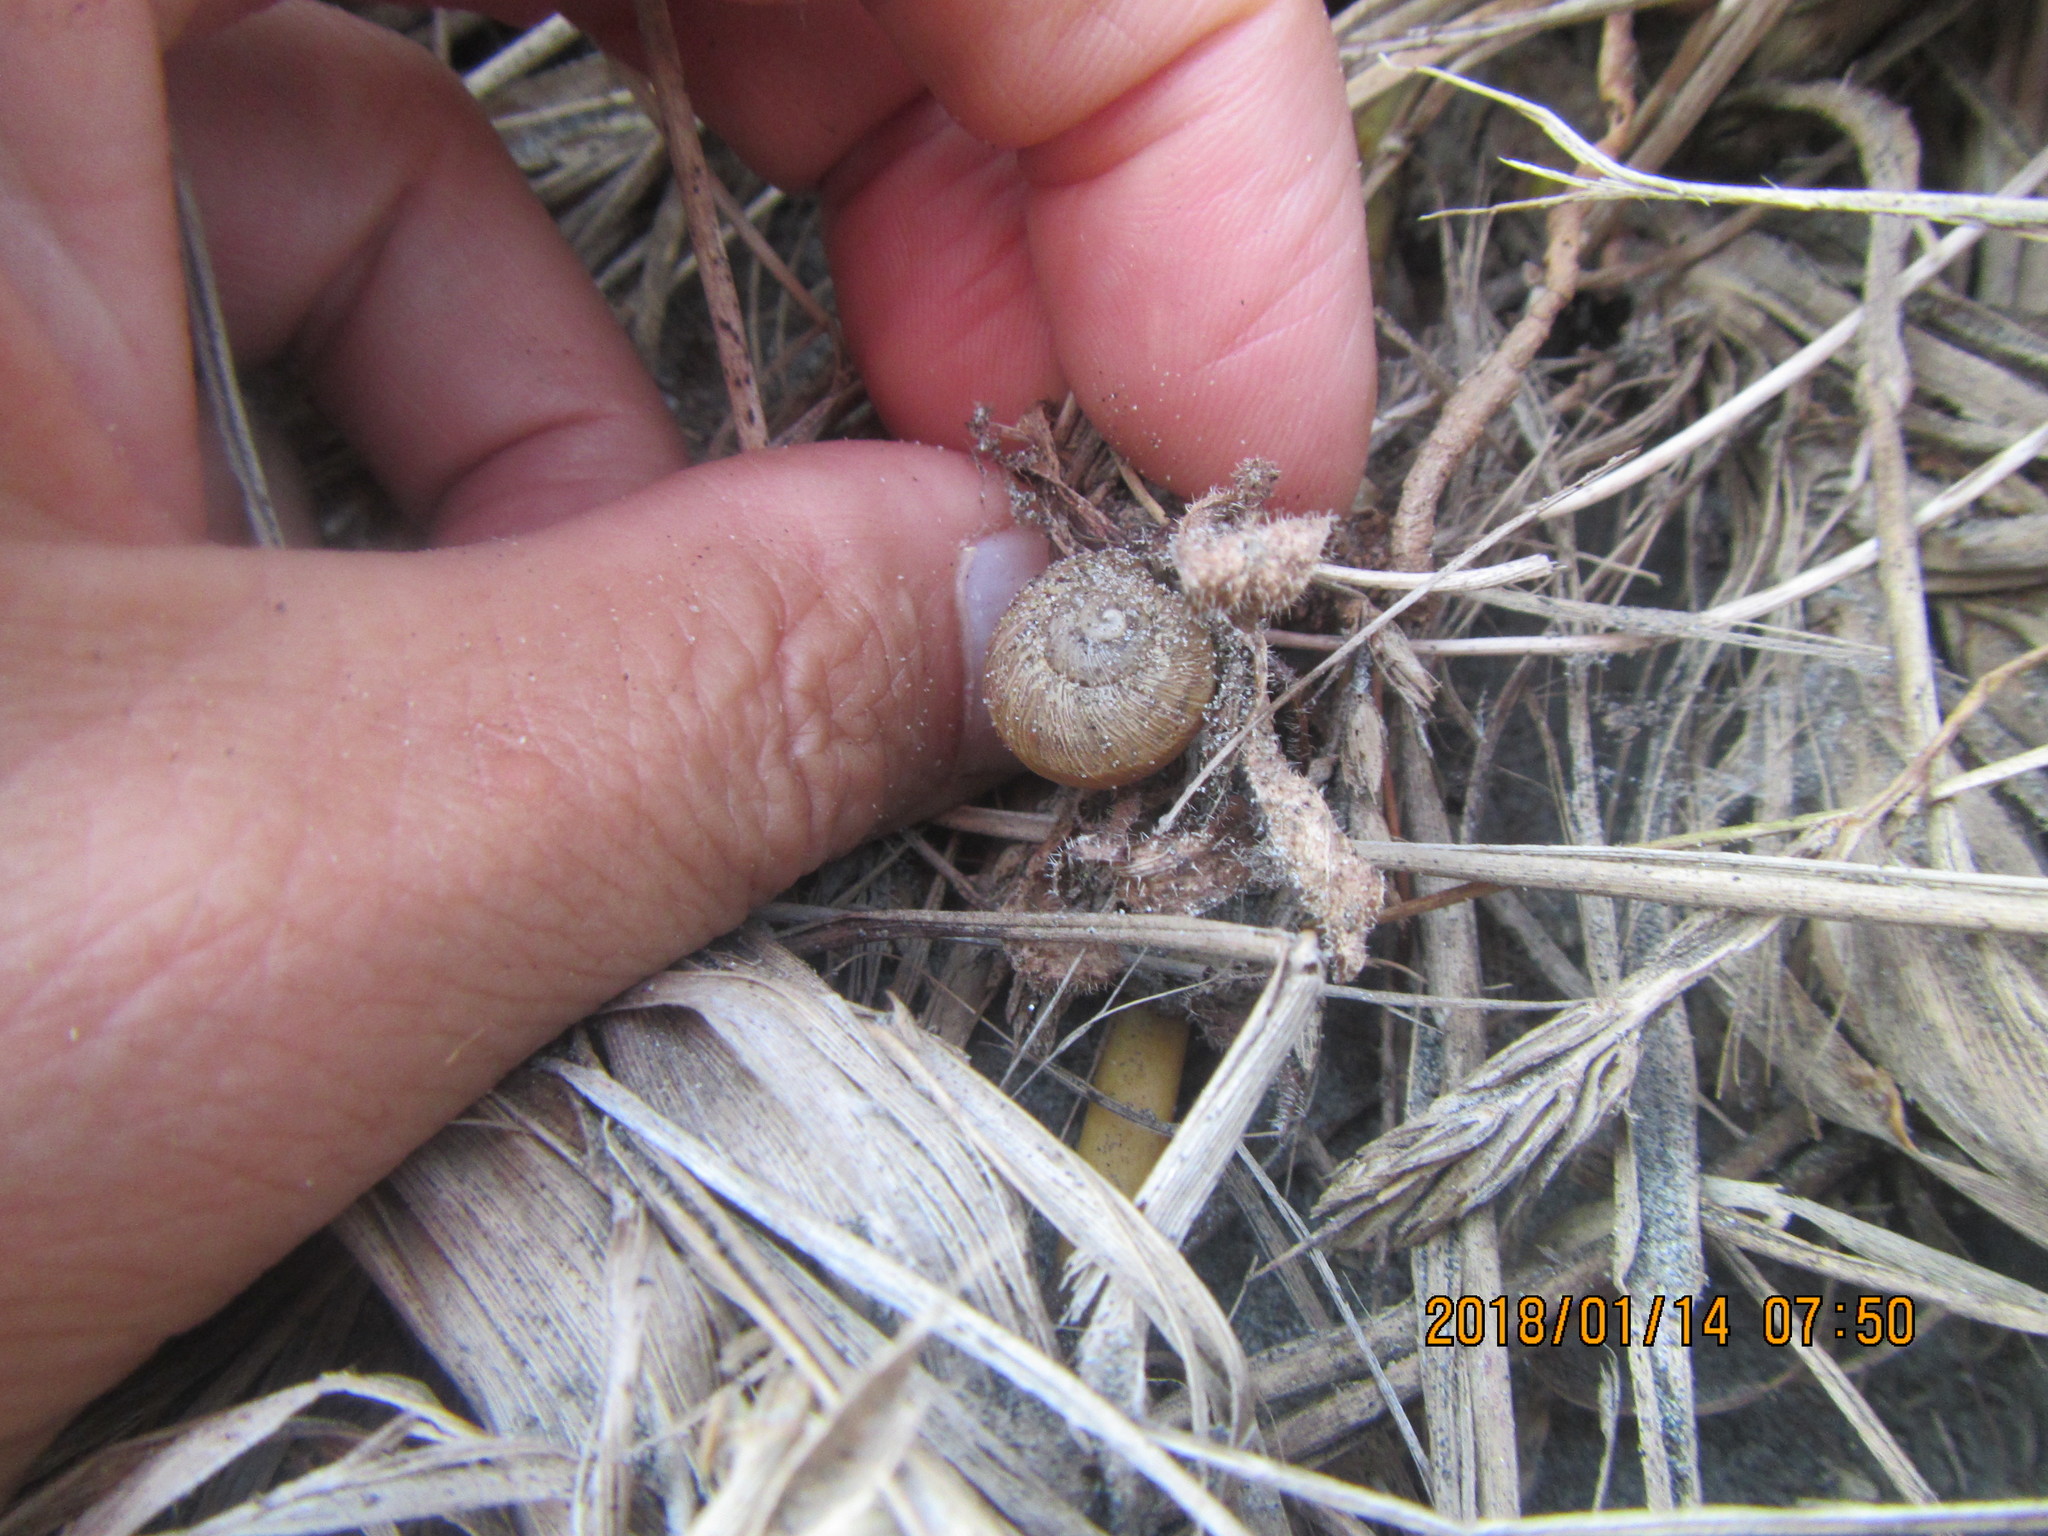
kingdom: Animalia
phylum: Mollusca
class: Gastropoda
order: Stylommatophora
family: Helicidae
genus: Cornu
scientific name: Cornu aspersum
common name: Brown garden snail
